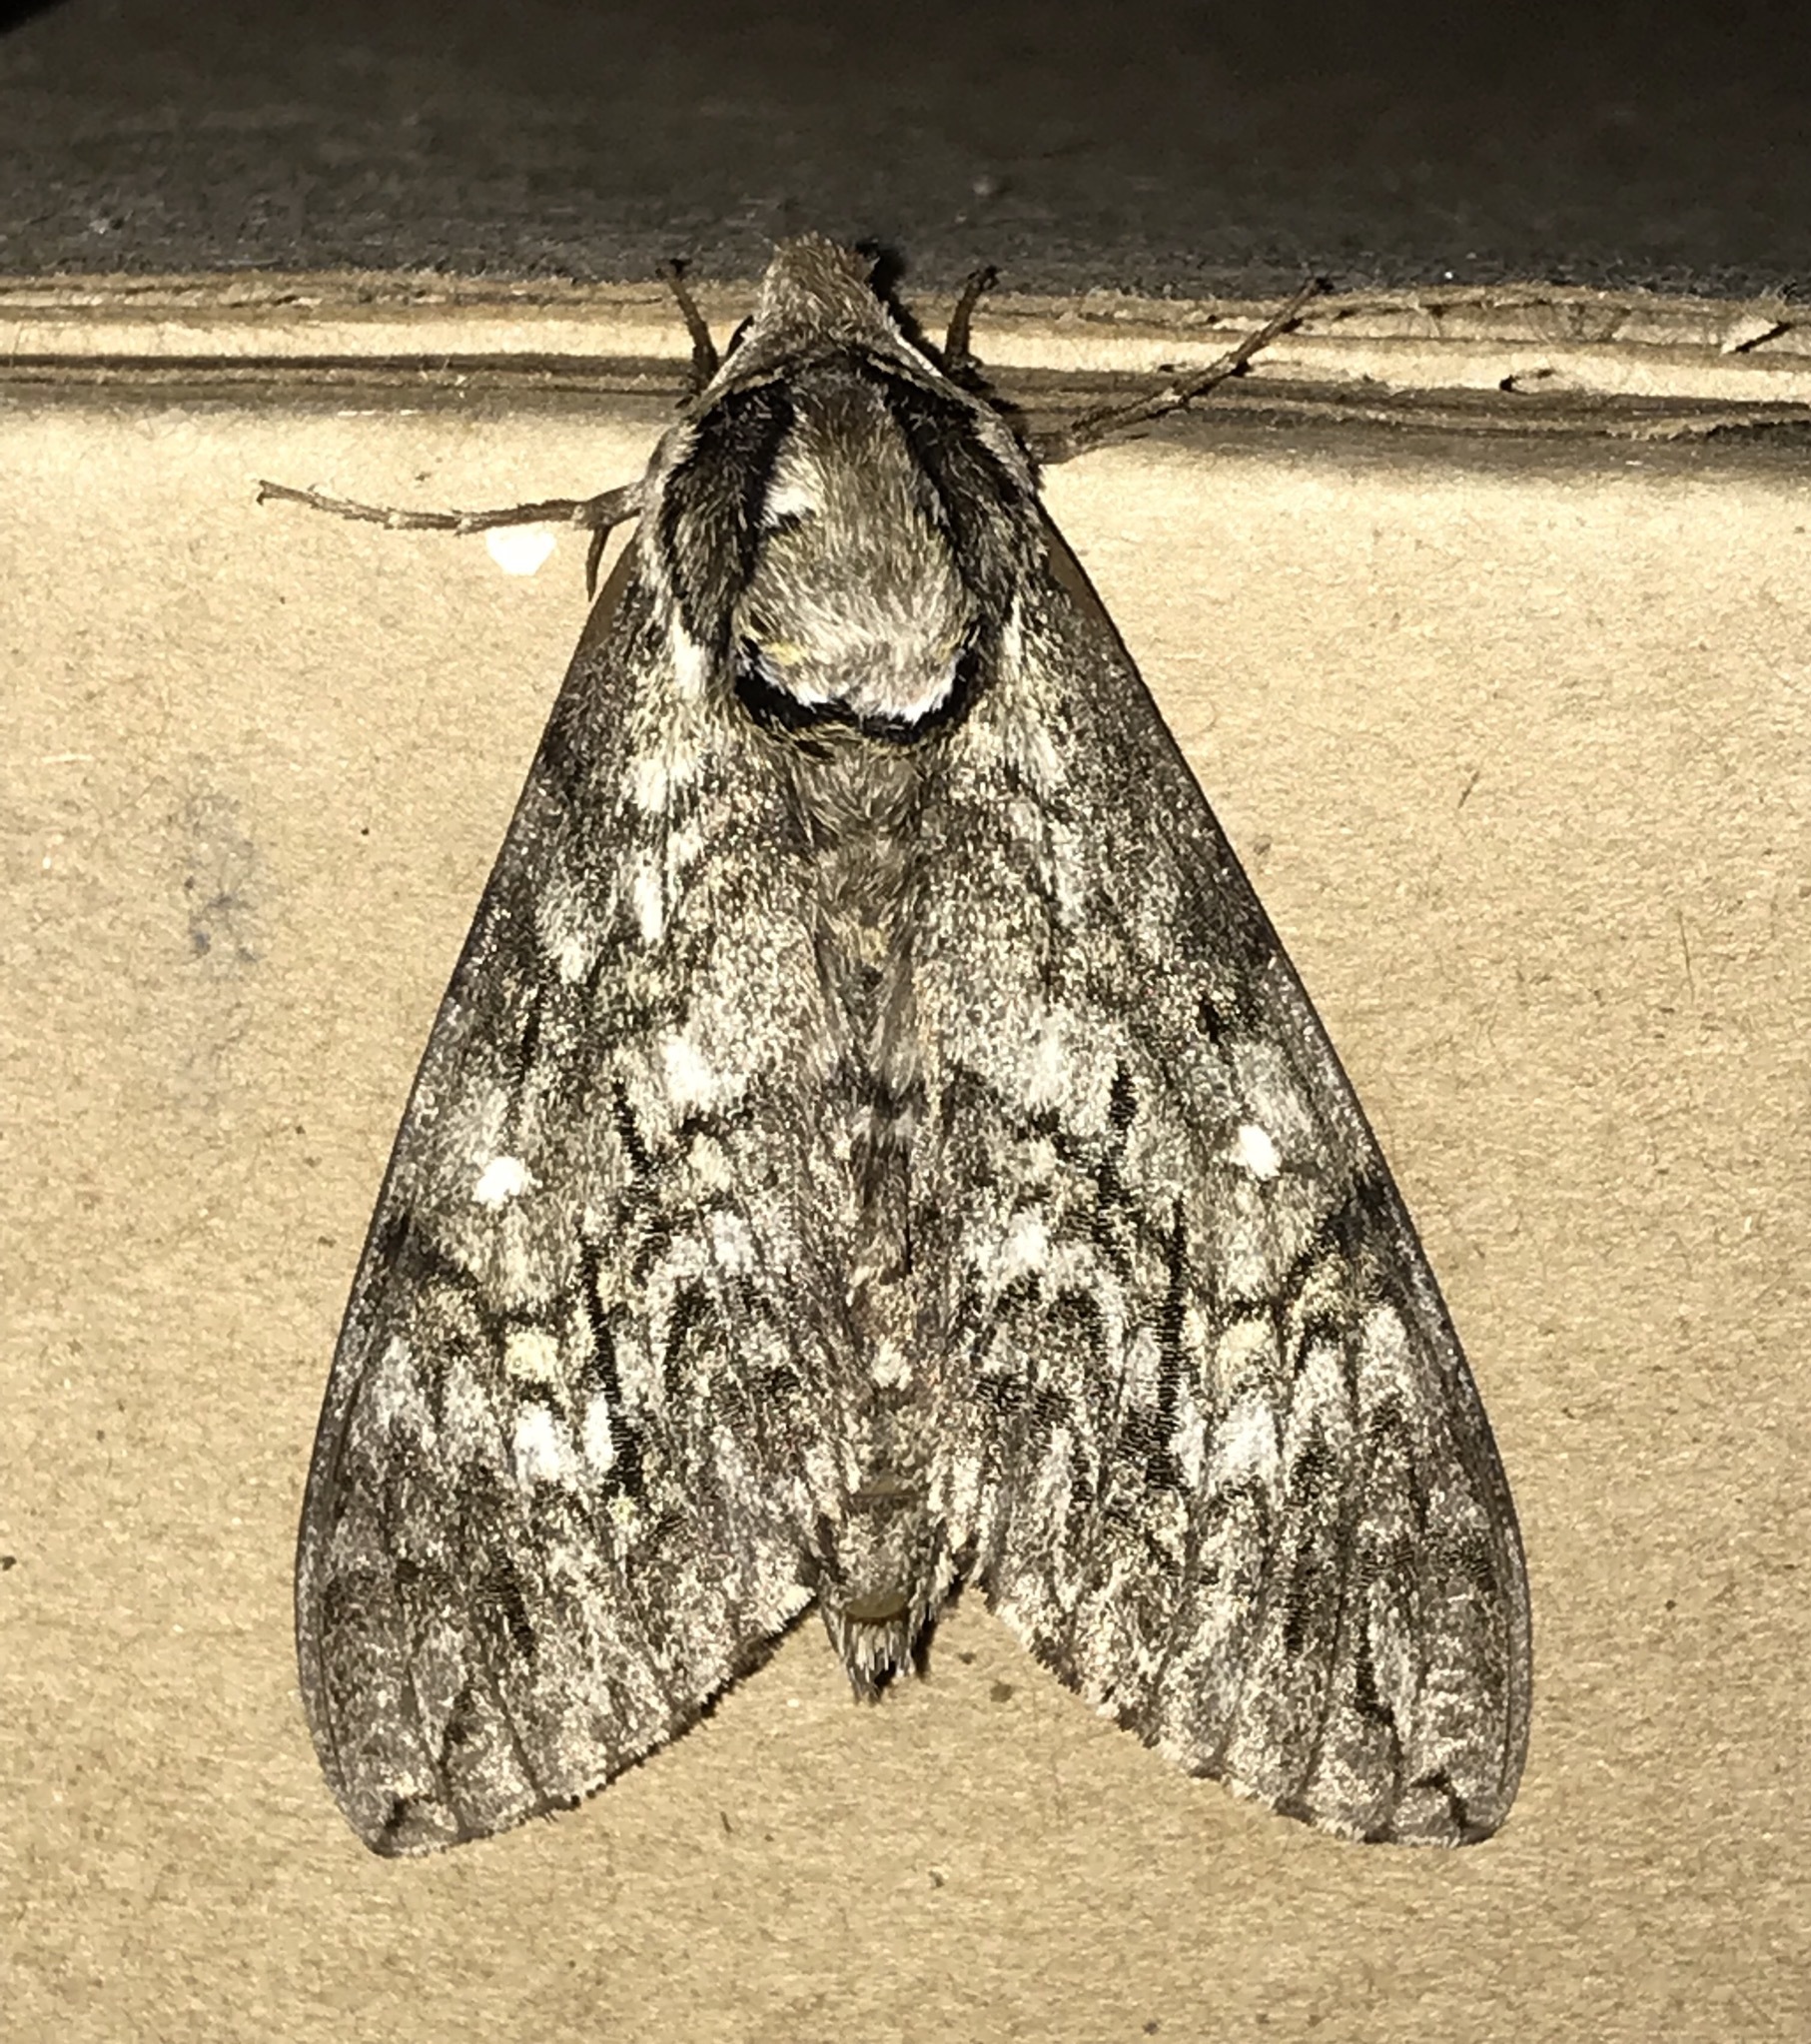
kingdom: Animalia
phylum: Arthropoda
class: Insecta
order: Lepidoptera
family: Sphingidae
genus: Ceratomia
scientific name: Ceratomia undulosa
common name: Waved sphinx
